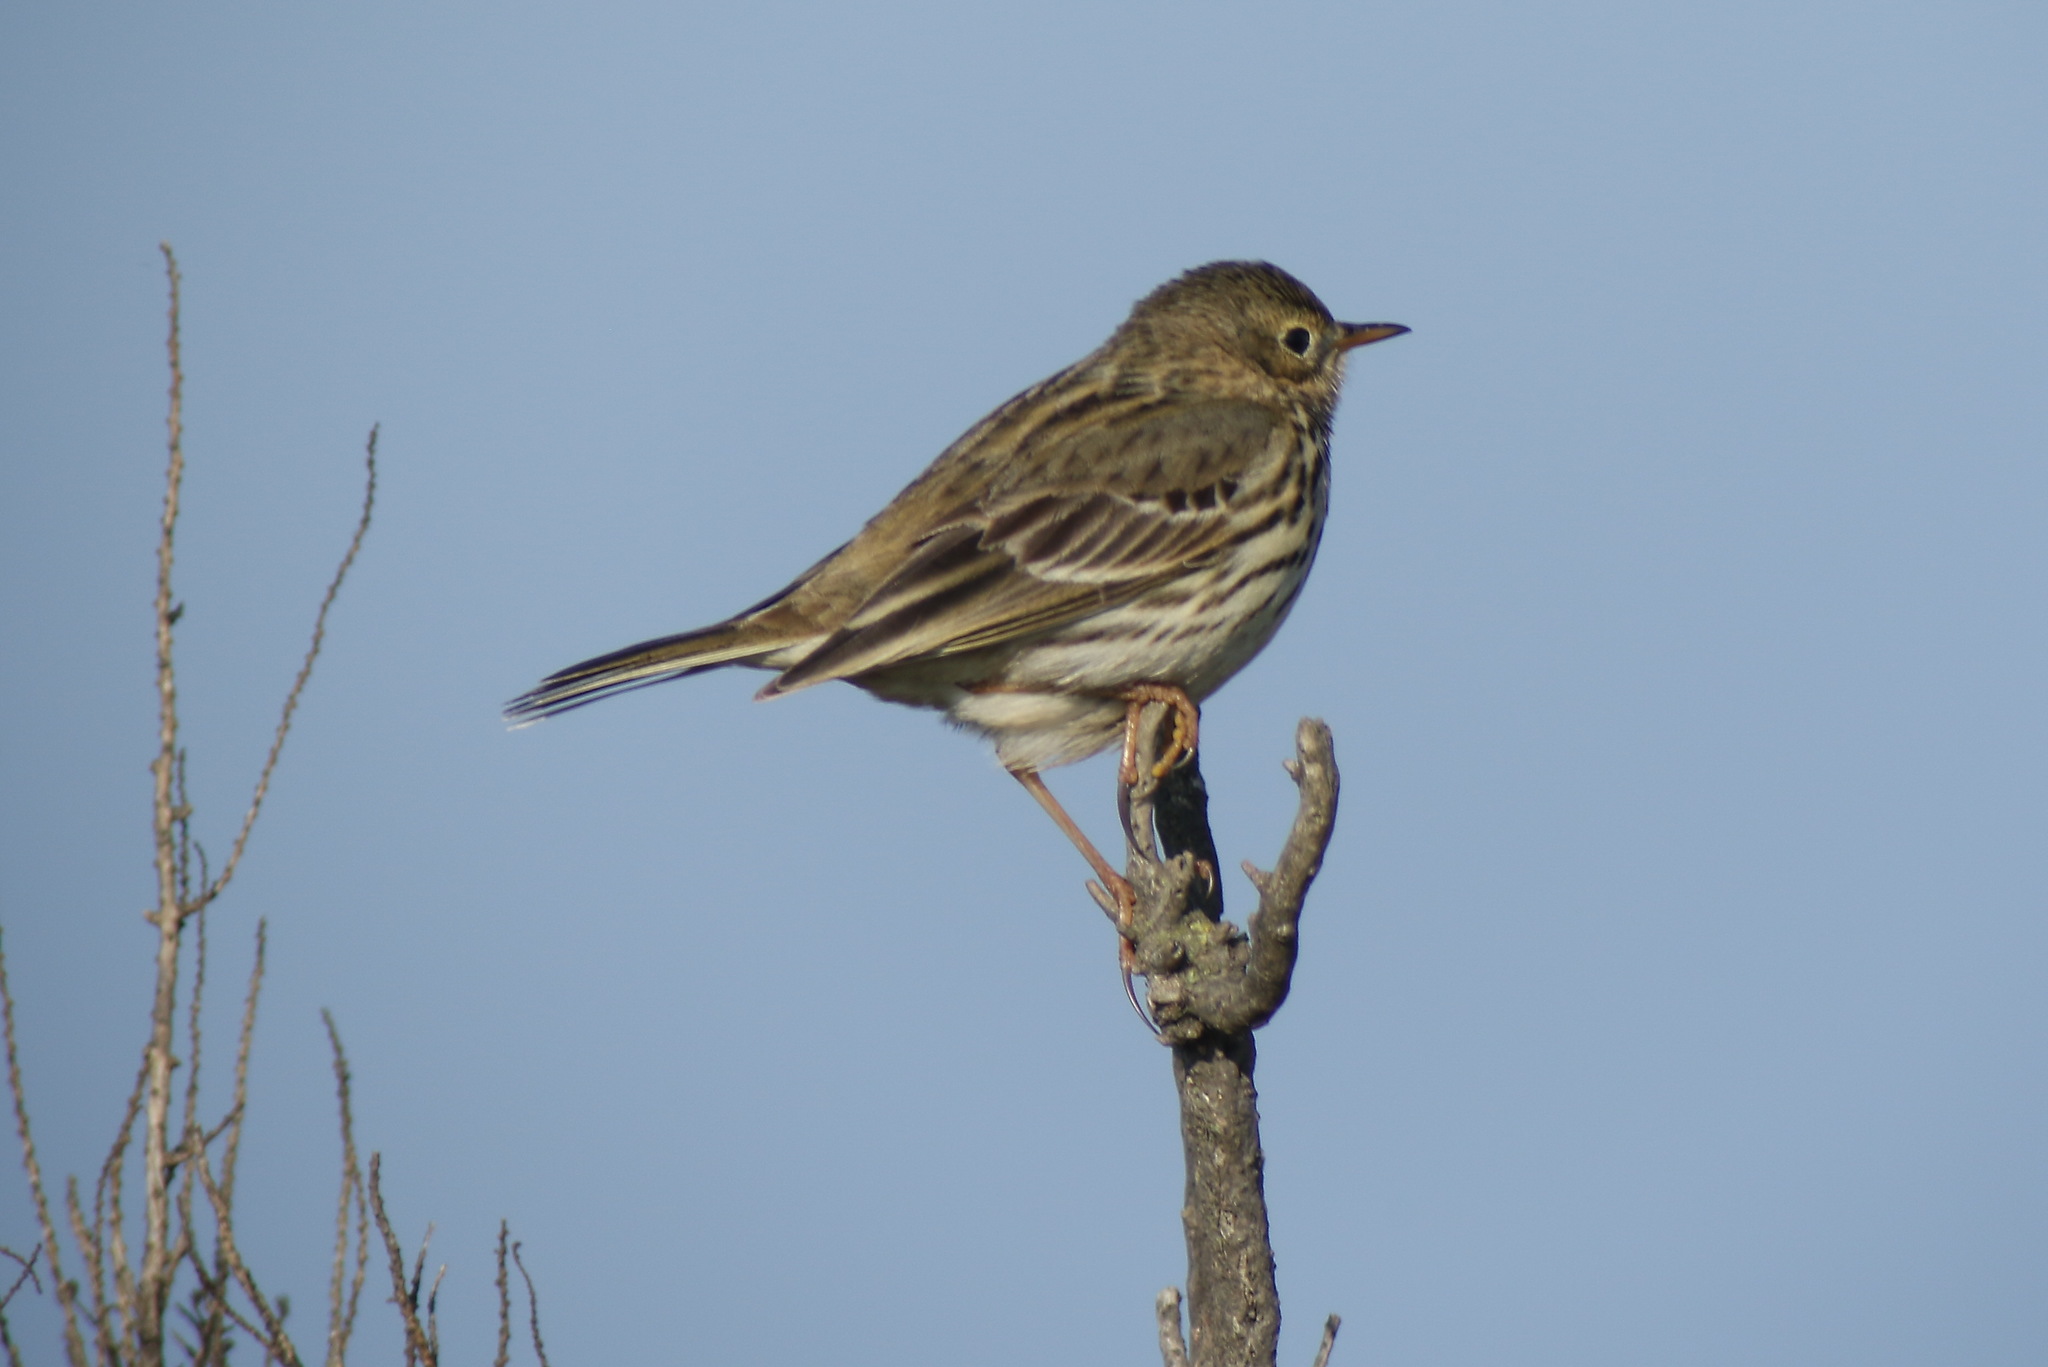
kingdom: Animalia
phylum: Chordata
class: Aves
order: Passeriformes
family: Motacillidae
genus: Anthus
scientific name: Anthus pratensis
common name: Meadow pipit
